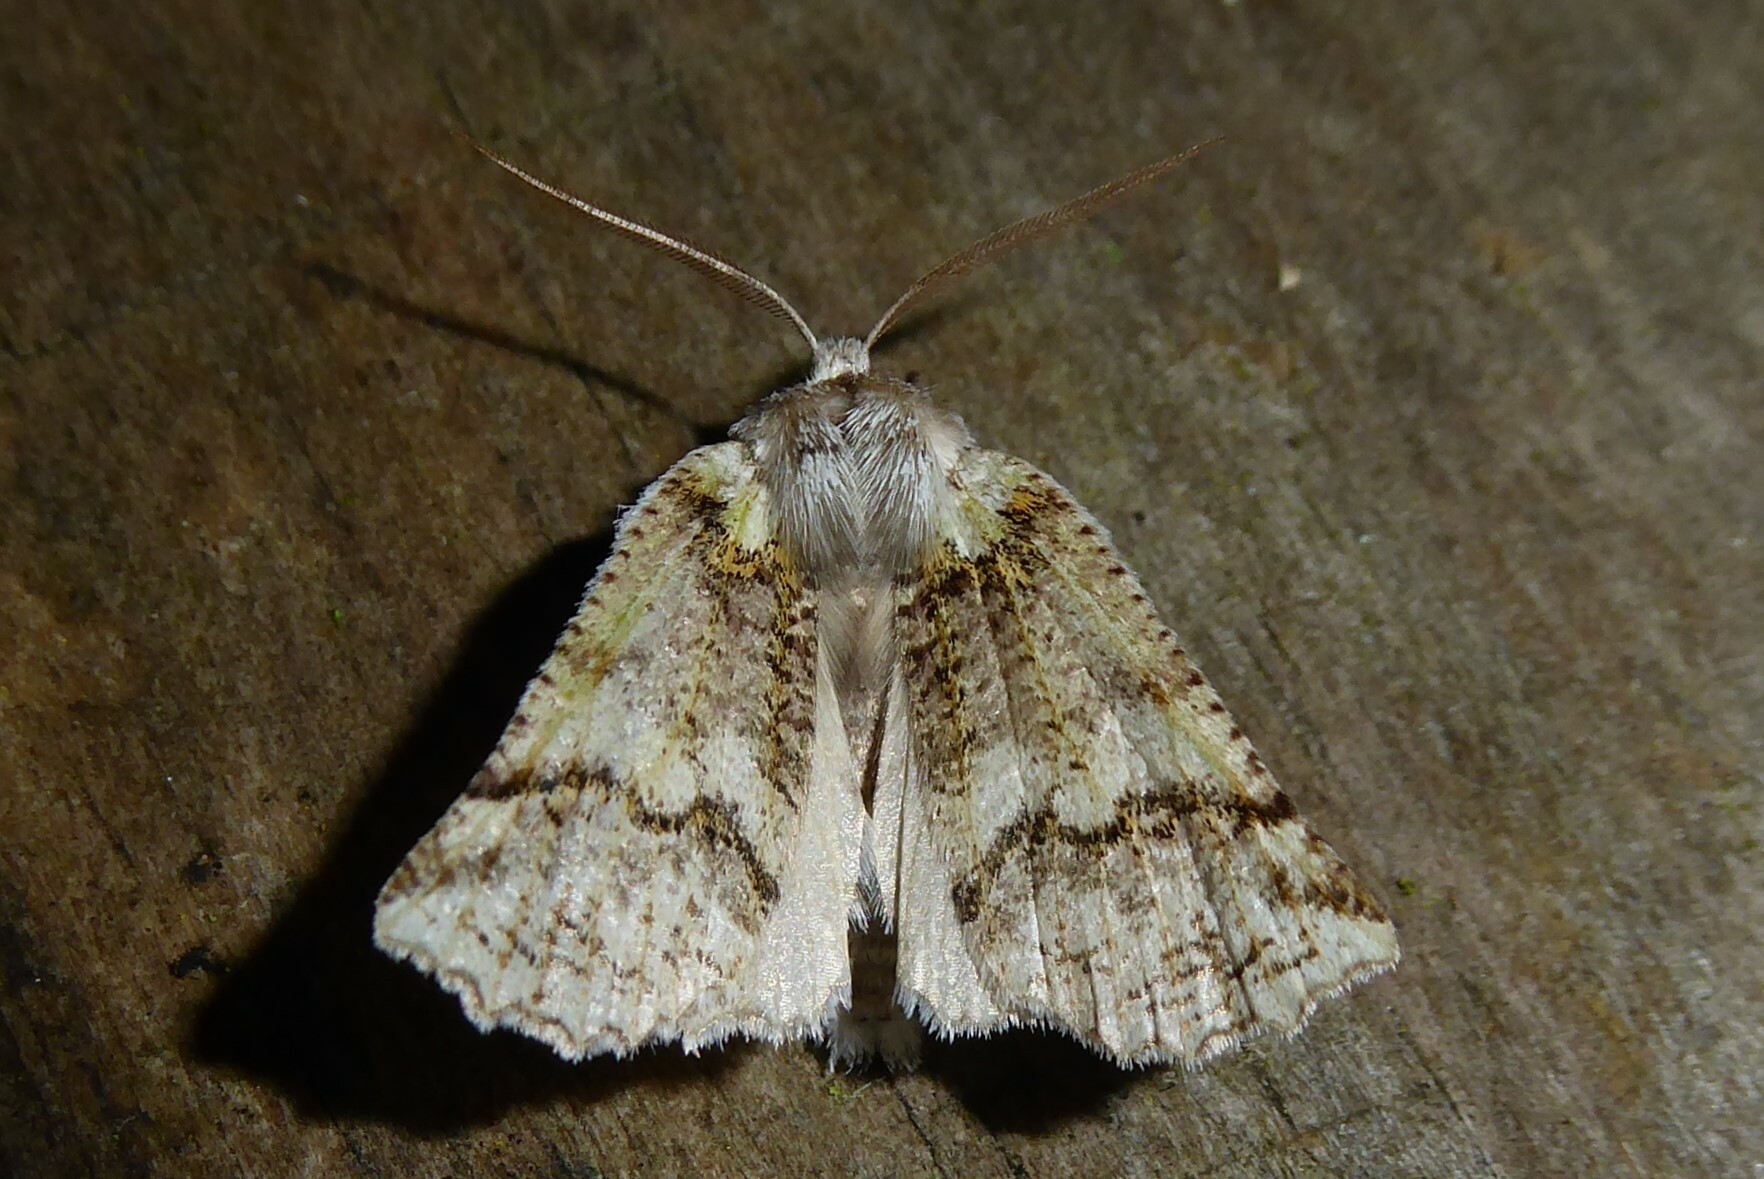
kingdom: Animalia
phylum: Arthropoda
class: Insecta
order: Lepidoptera
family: Geometridae
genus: Declana
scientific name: Declana floccosa
